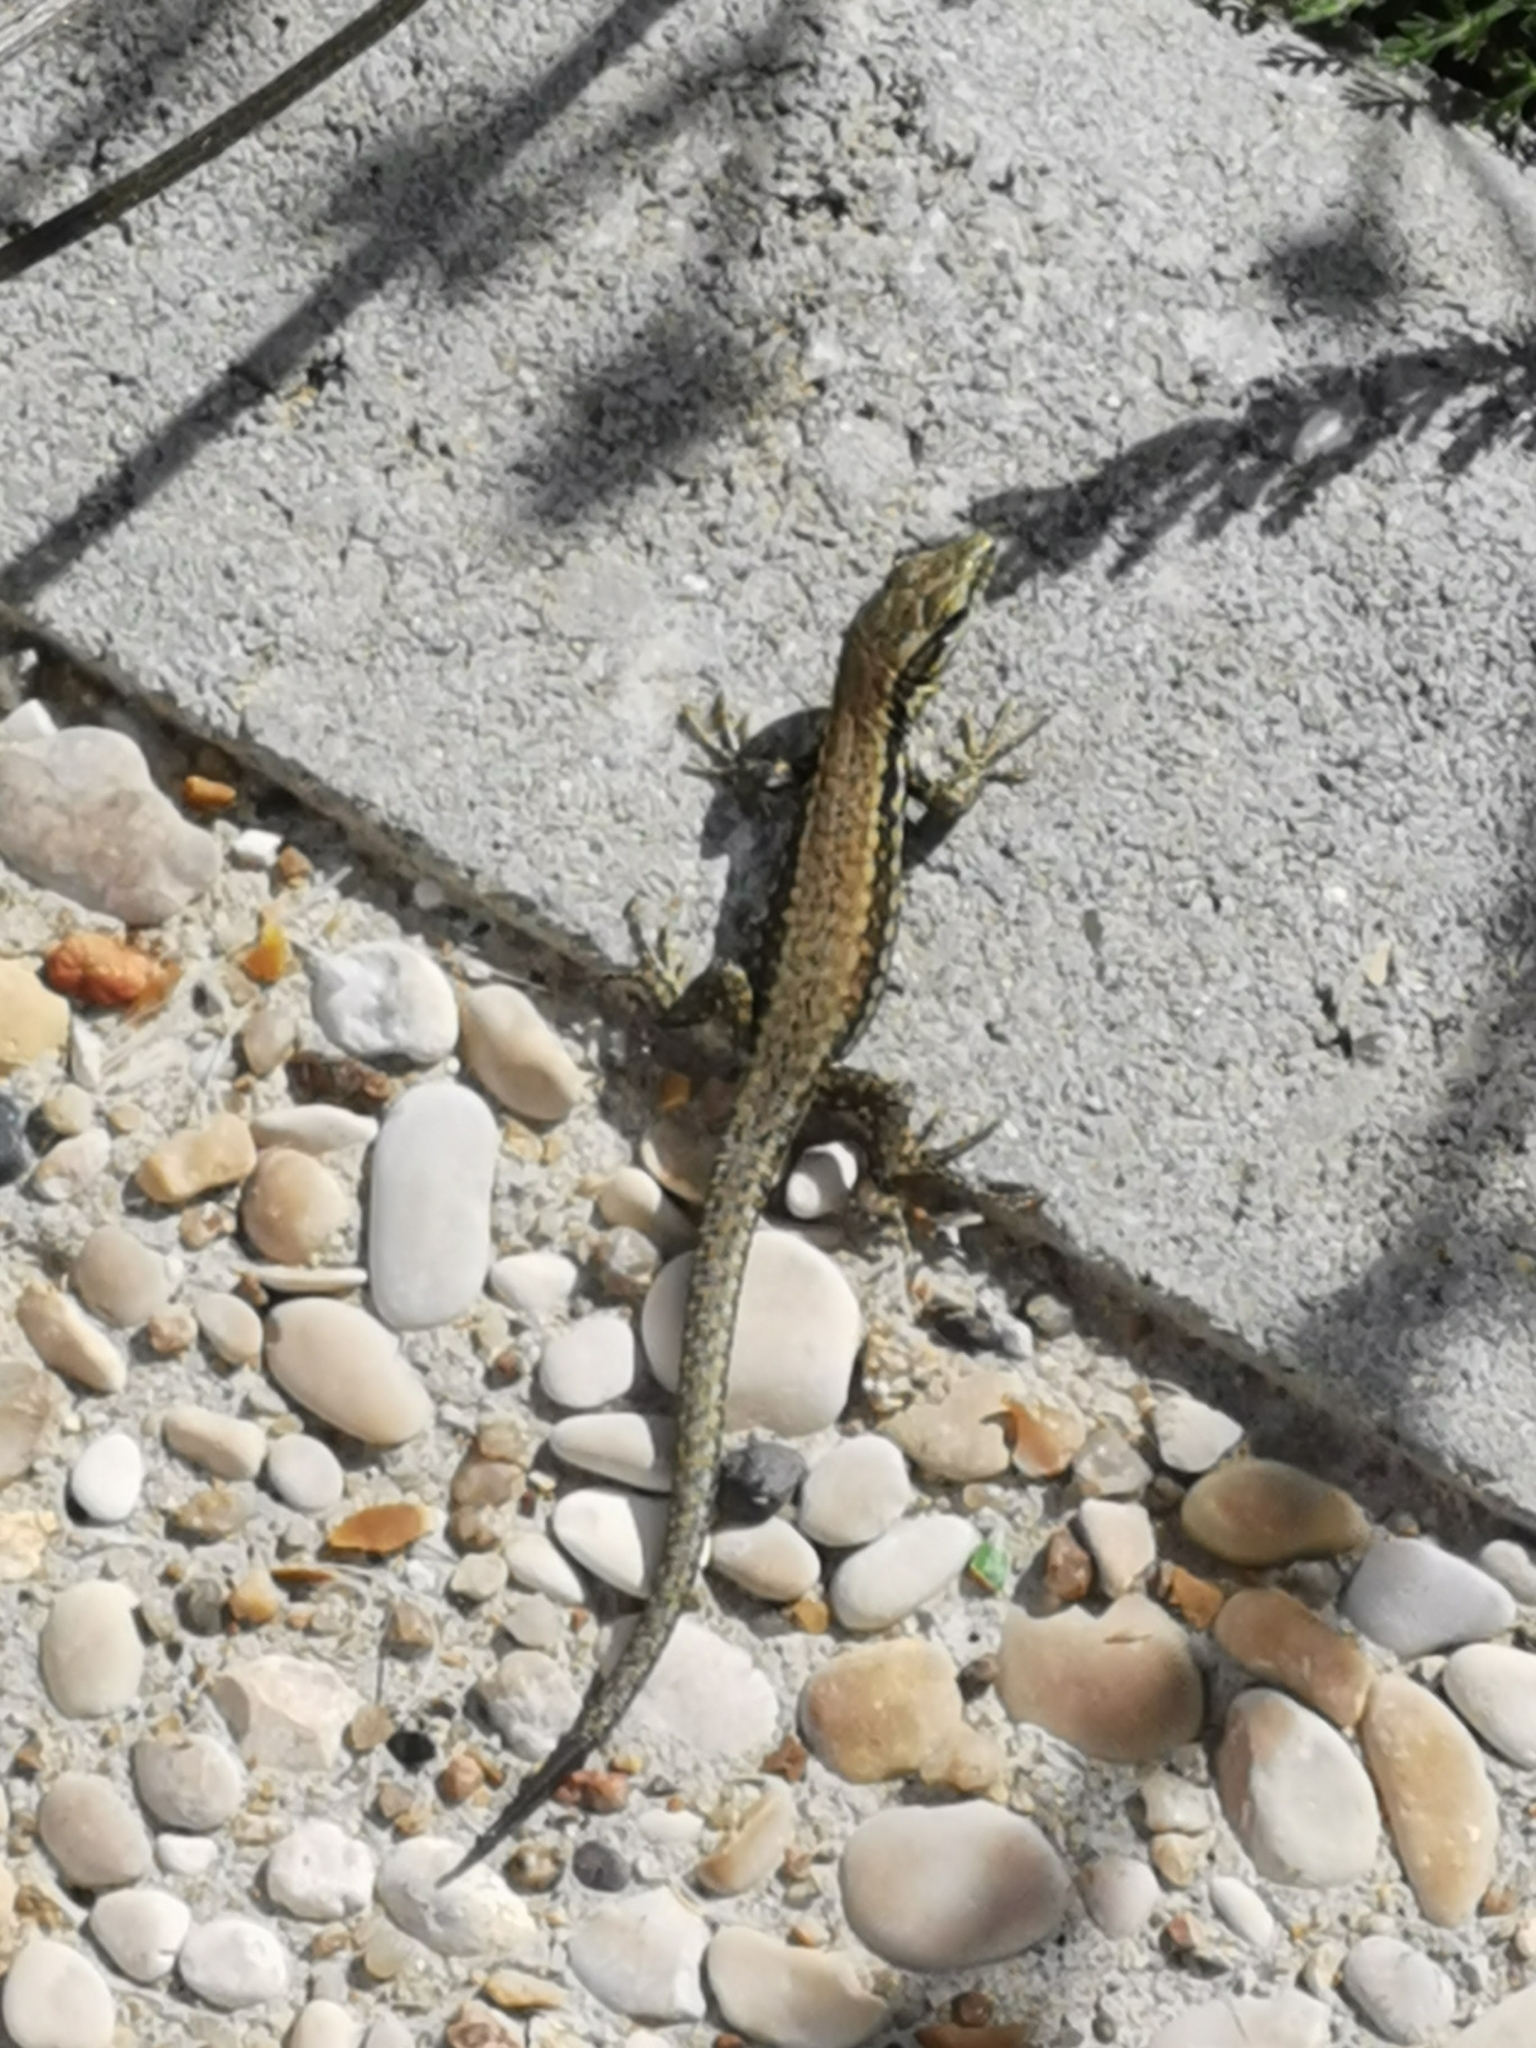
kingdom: Animalia
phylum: Chordata
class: Squamata
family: Lacertidae
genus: Podarcis
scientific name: Podarcis muralis
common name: Common wall lizard
